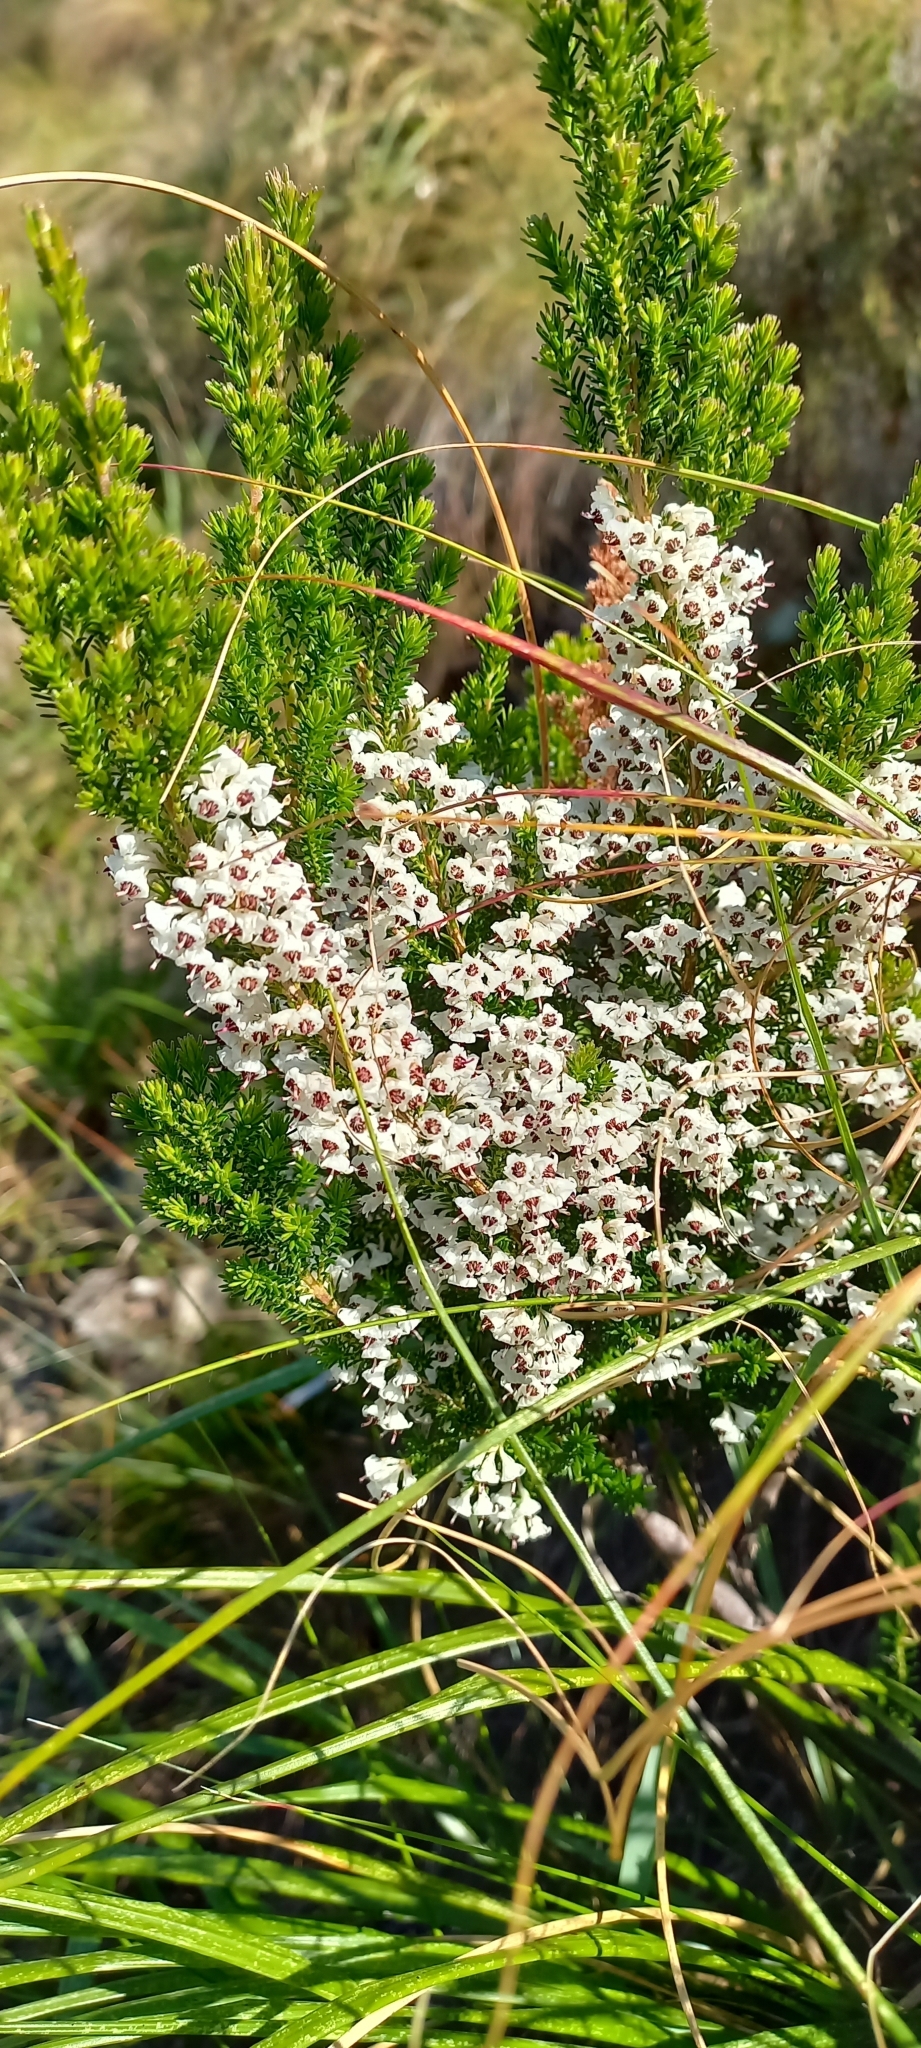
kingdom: Plantae
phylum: Tracheophyta
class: Magnoliopsida
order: Ericales
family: Ericaceae
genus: Erica
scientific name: Erica calycina
